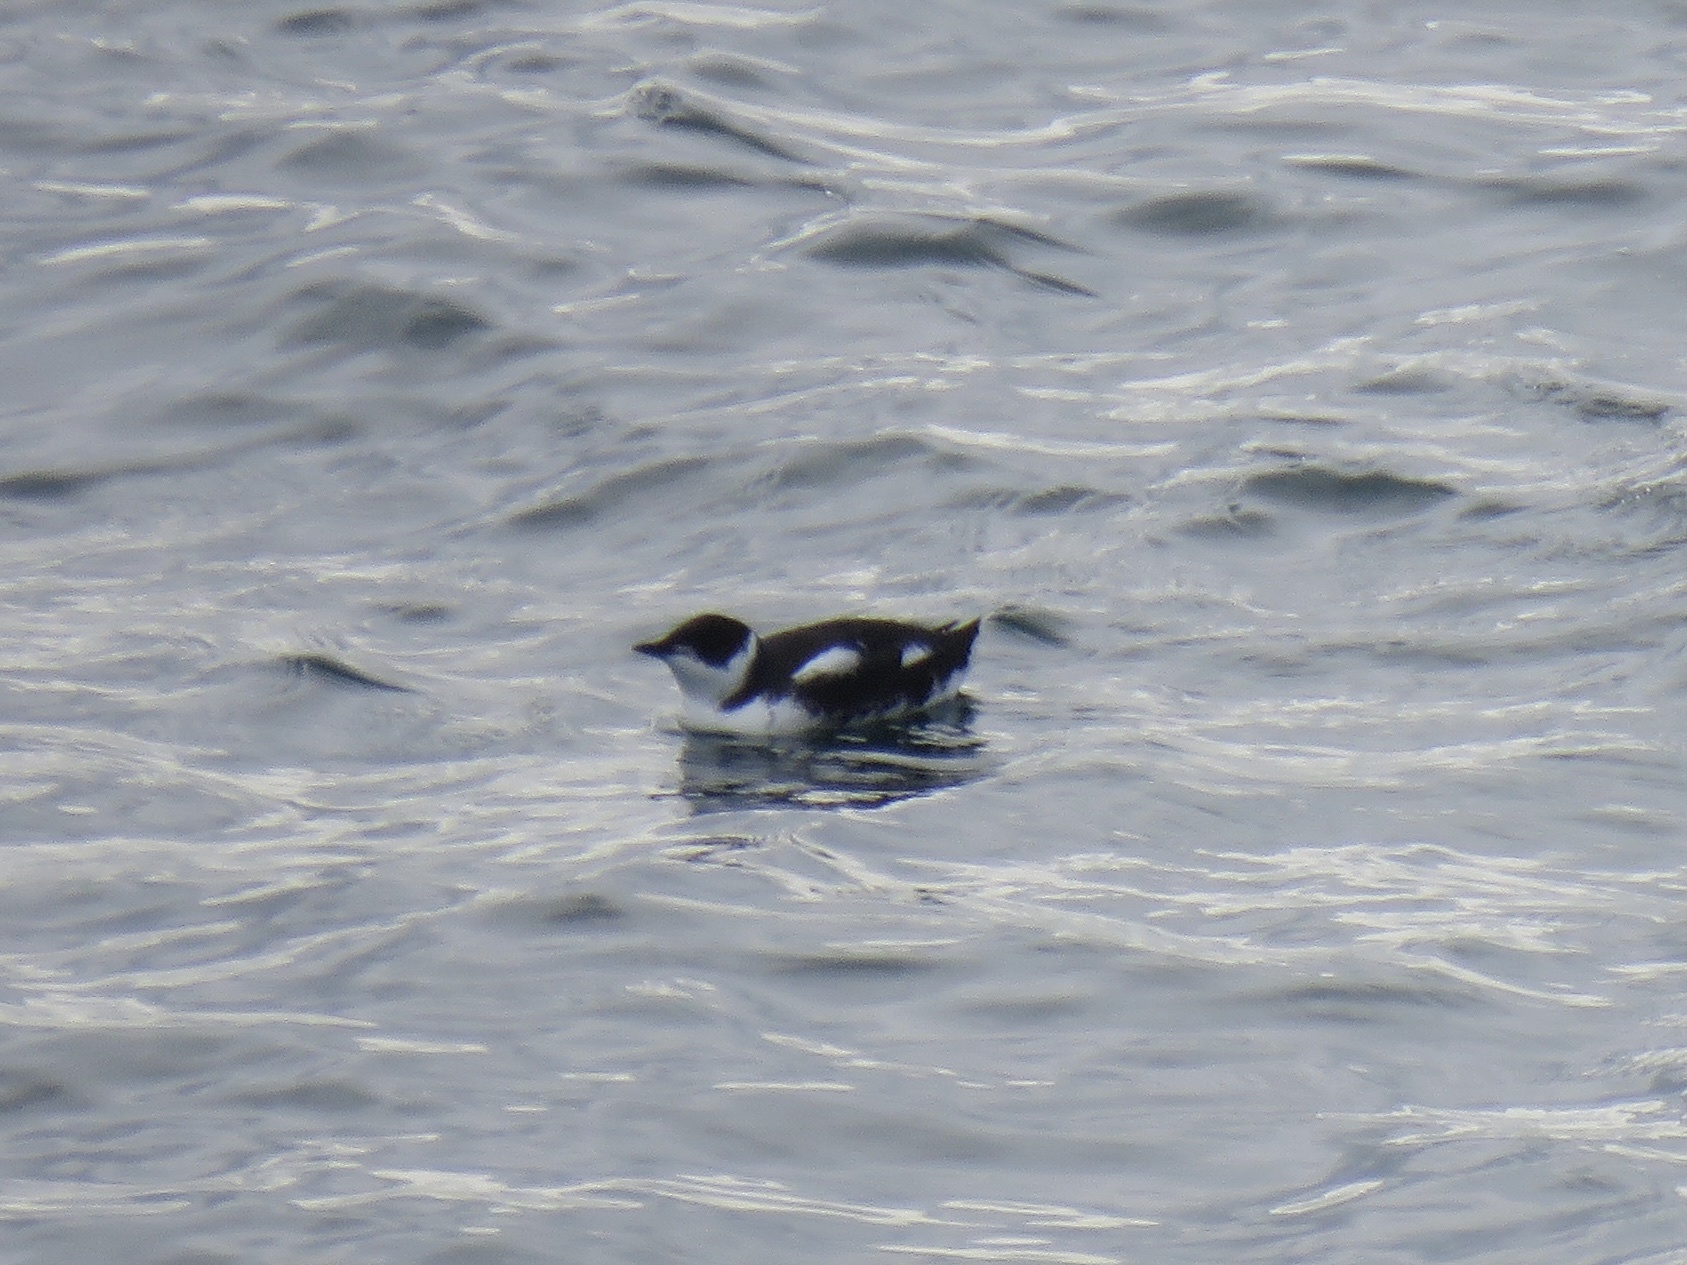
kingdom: Animalia
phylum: Chordata
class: Aves
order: Charadriiformes
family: Alcidae
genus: Brachyramphus
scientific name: Brachyramphus marmoratus
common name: Marbled murrelet
